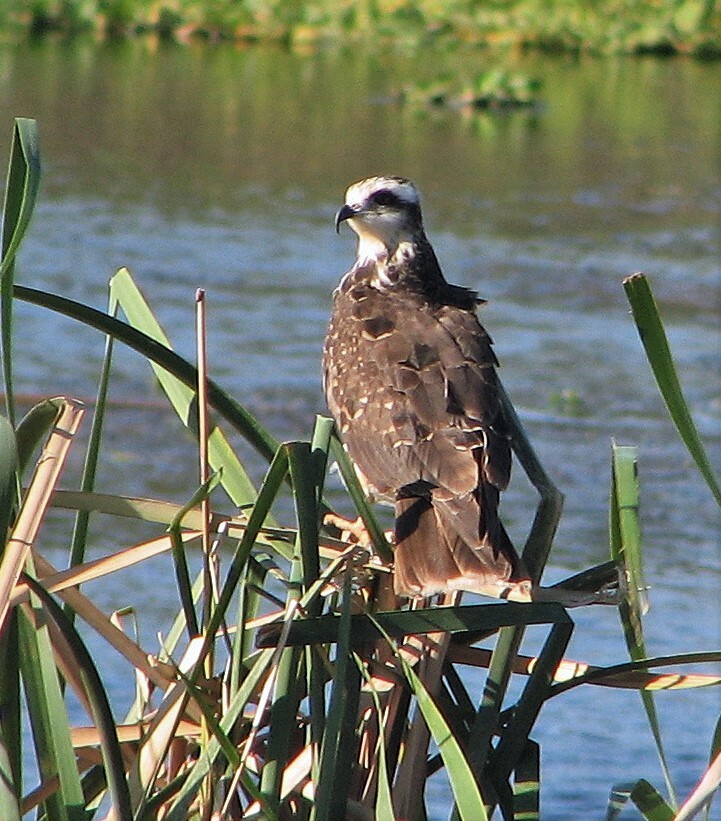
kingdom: Animalia
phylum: Chordata
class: Aves
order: Accipitriformes
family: Accipitridae
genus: Rostrhamus
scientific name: Rostrhamus sociabilis
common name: Snail kite
